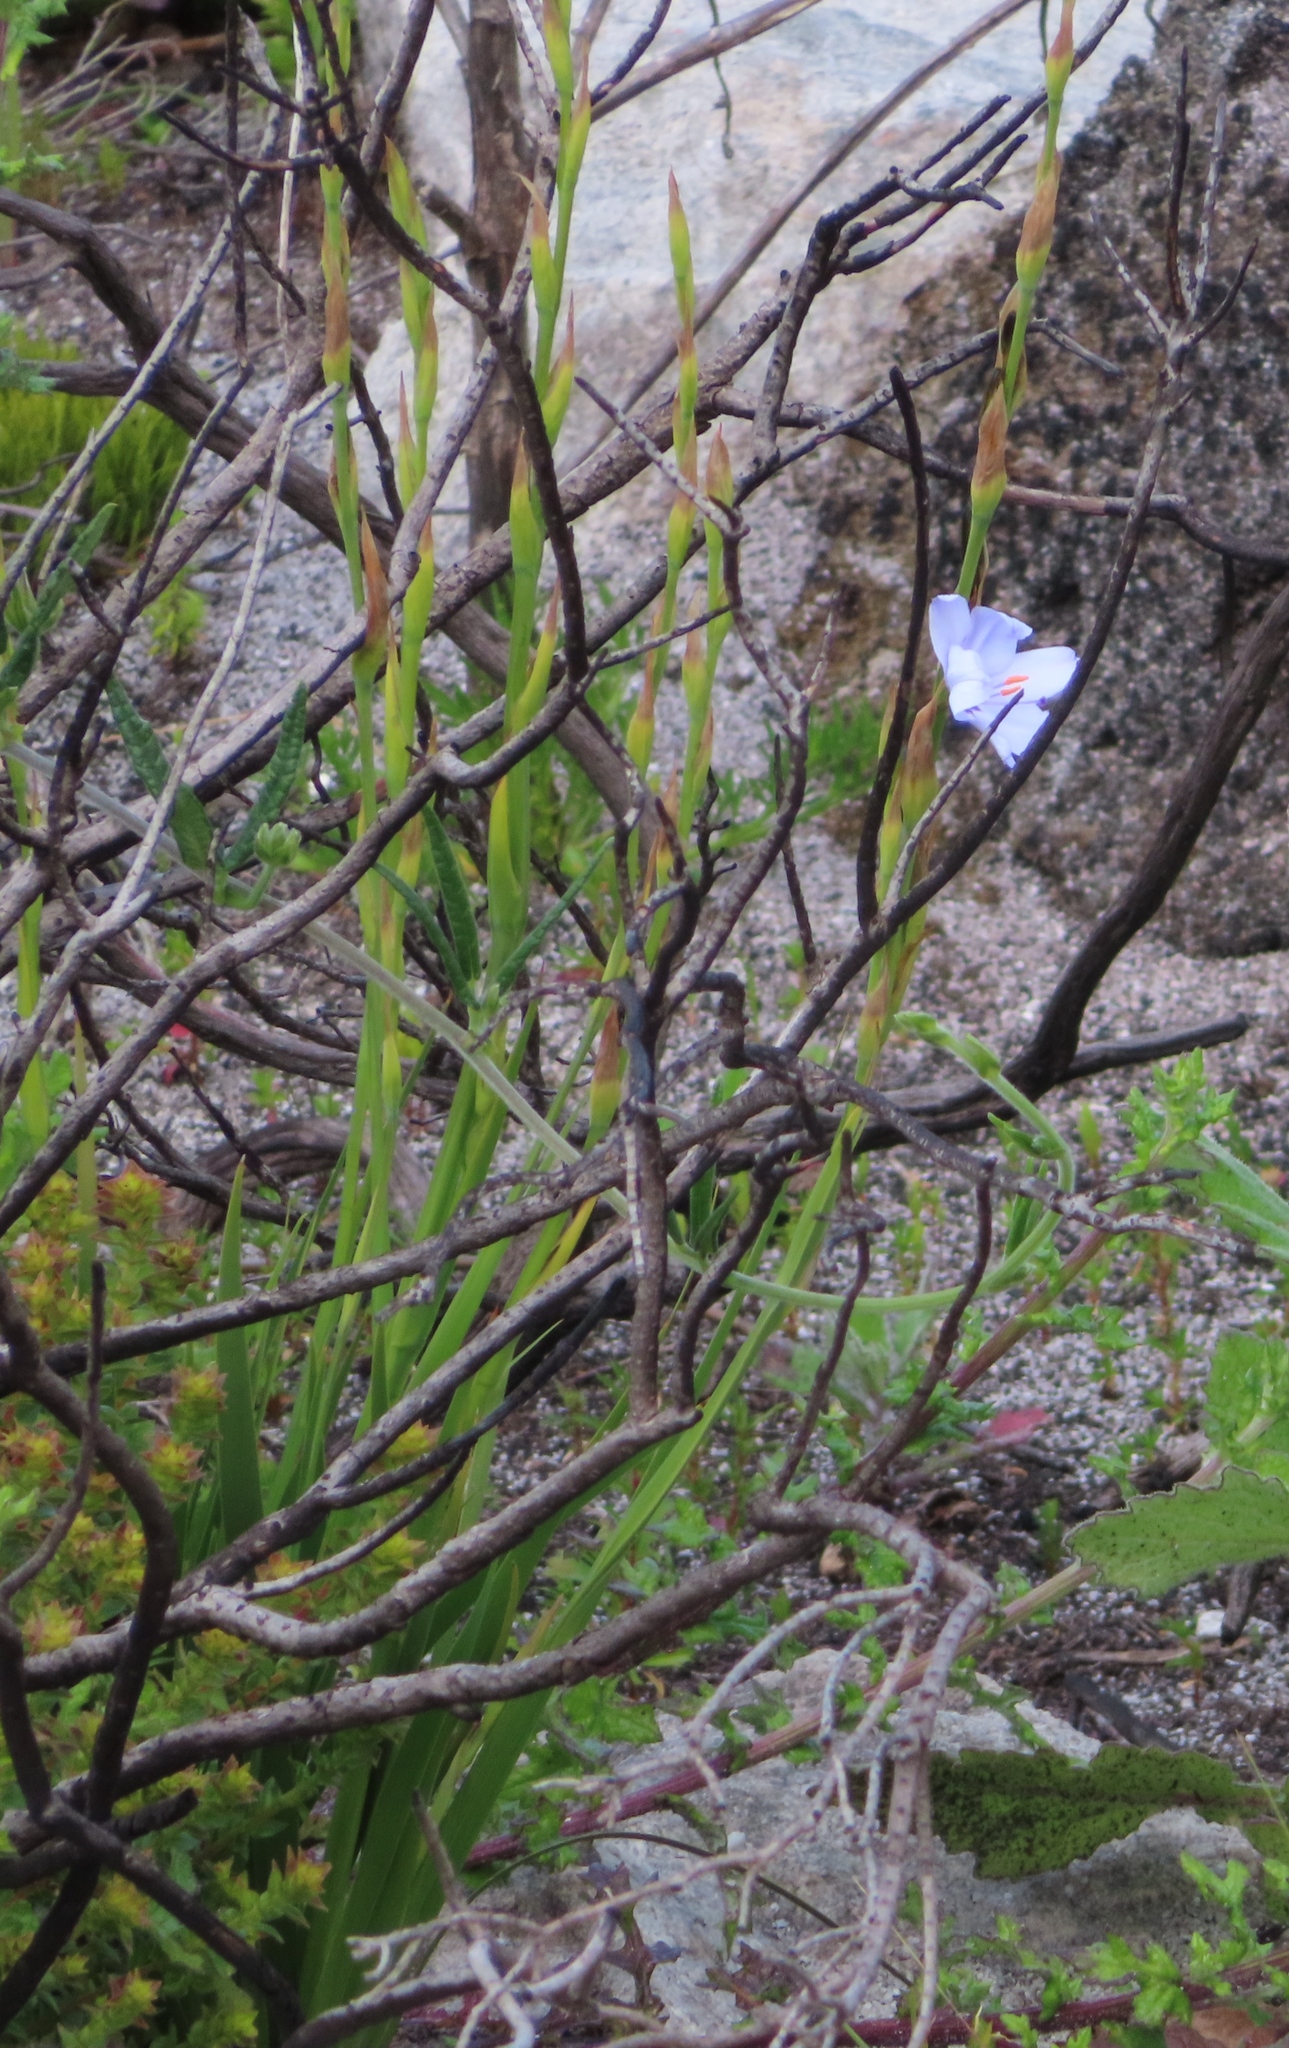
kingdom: Plantae
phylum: Tracheophyta
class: Liliopsida
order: Asparagales
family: Iridaceae
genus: Aristea
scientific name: Aristea spiralis
